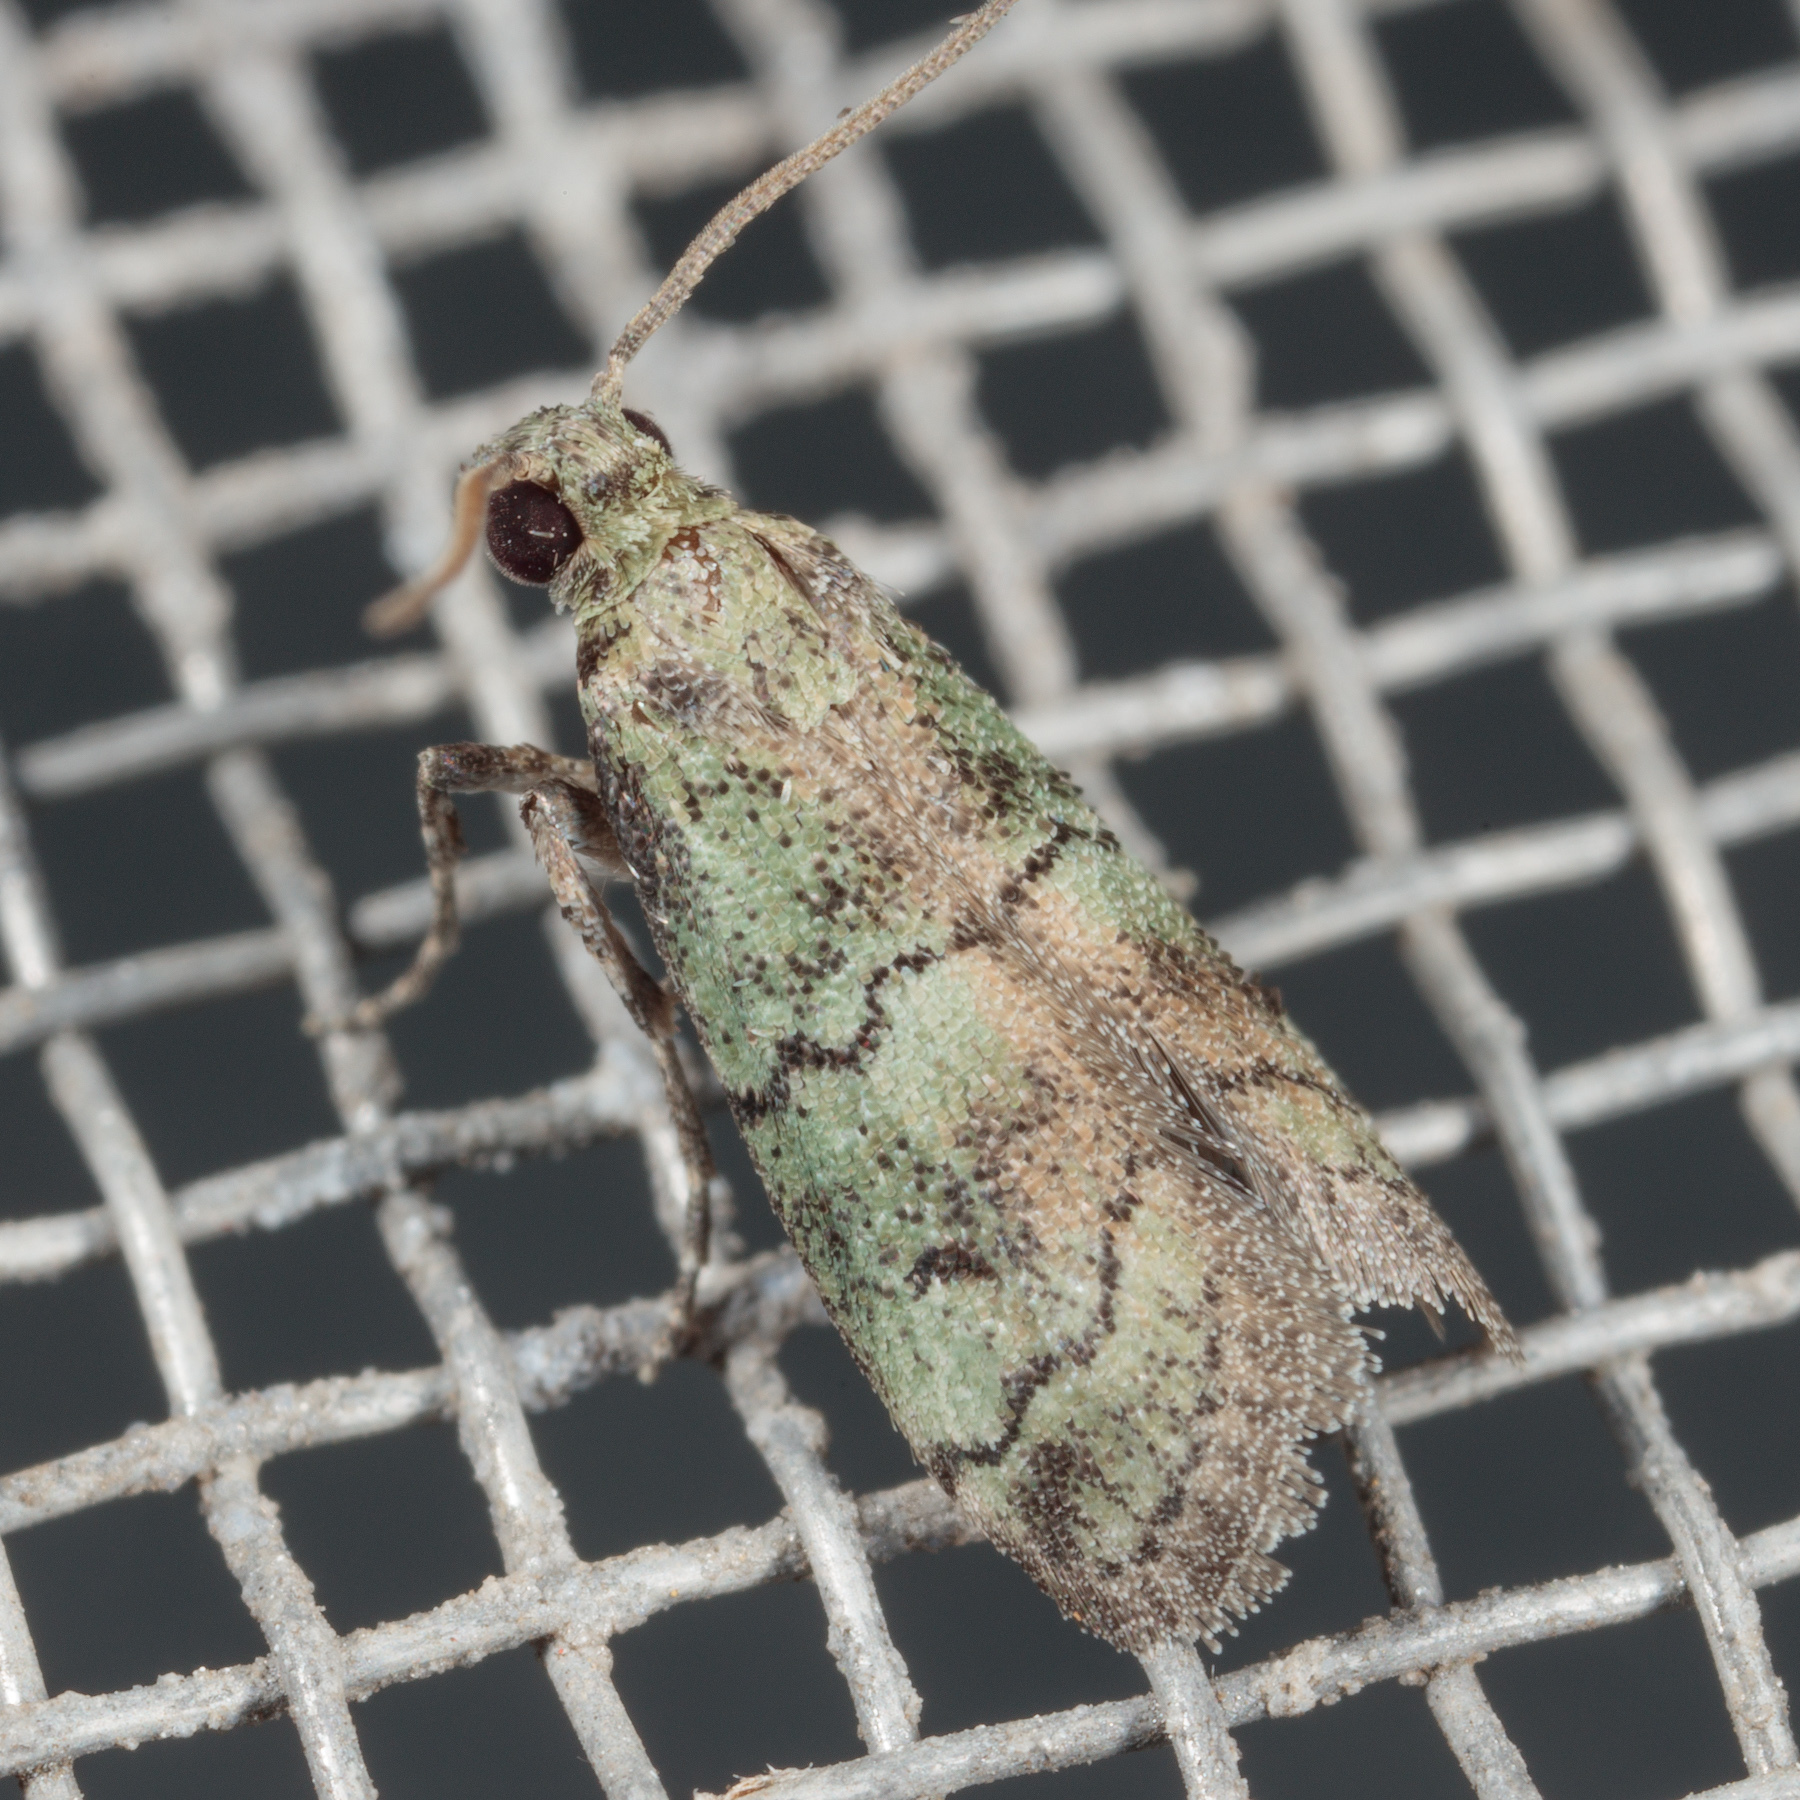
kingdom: Animalia
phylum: Arthropoda
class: Insecta
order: Lepidoptera
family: Pyralidae
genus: Cacotherapia
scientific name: Cacotherapia flexilinealis
